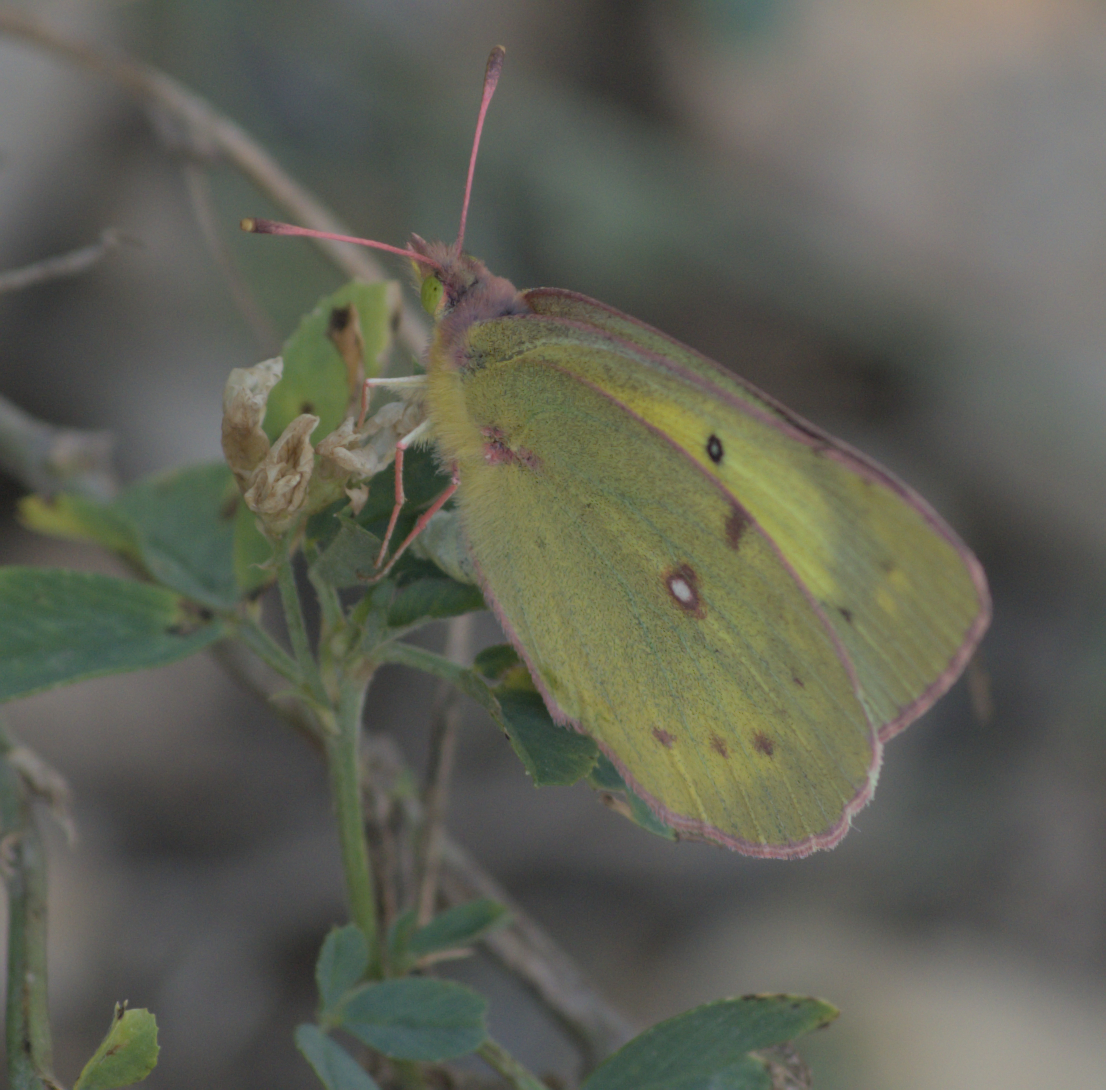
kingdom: Animalia
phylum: Arthropoda
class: Insecta
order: Lepidoptera
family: Pieridae
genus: Colias
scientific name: Colias philodice
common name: Clouded sulphur
